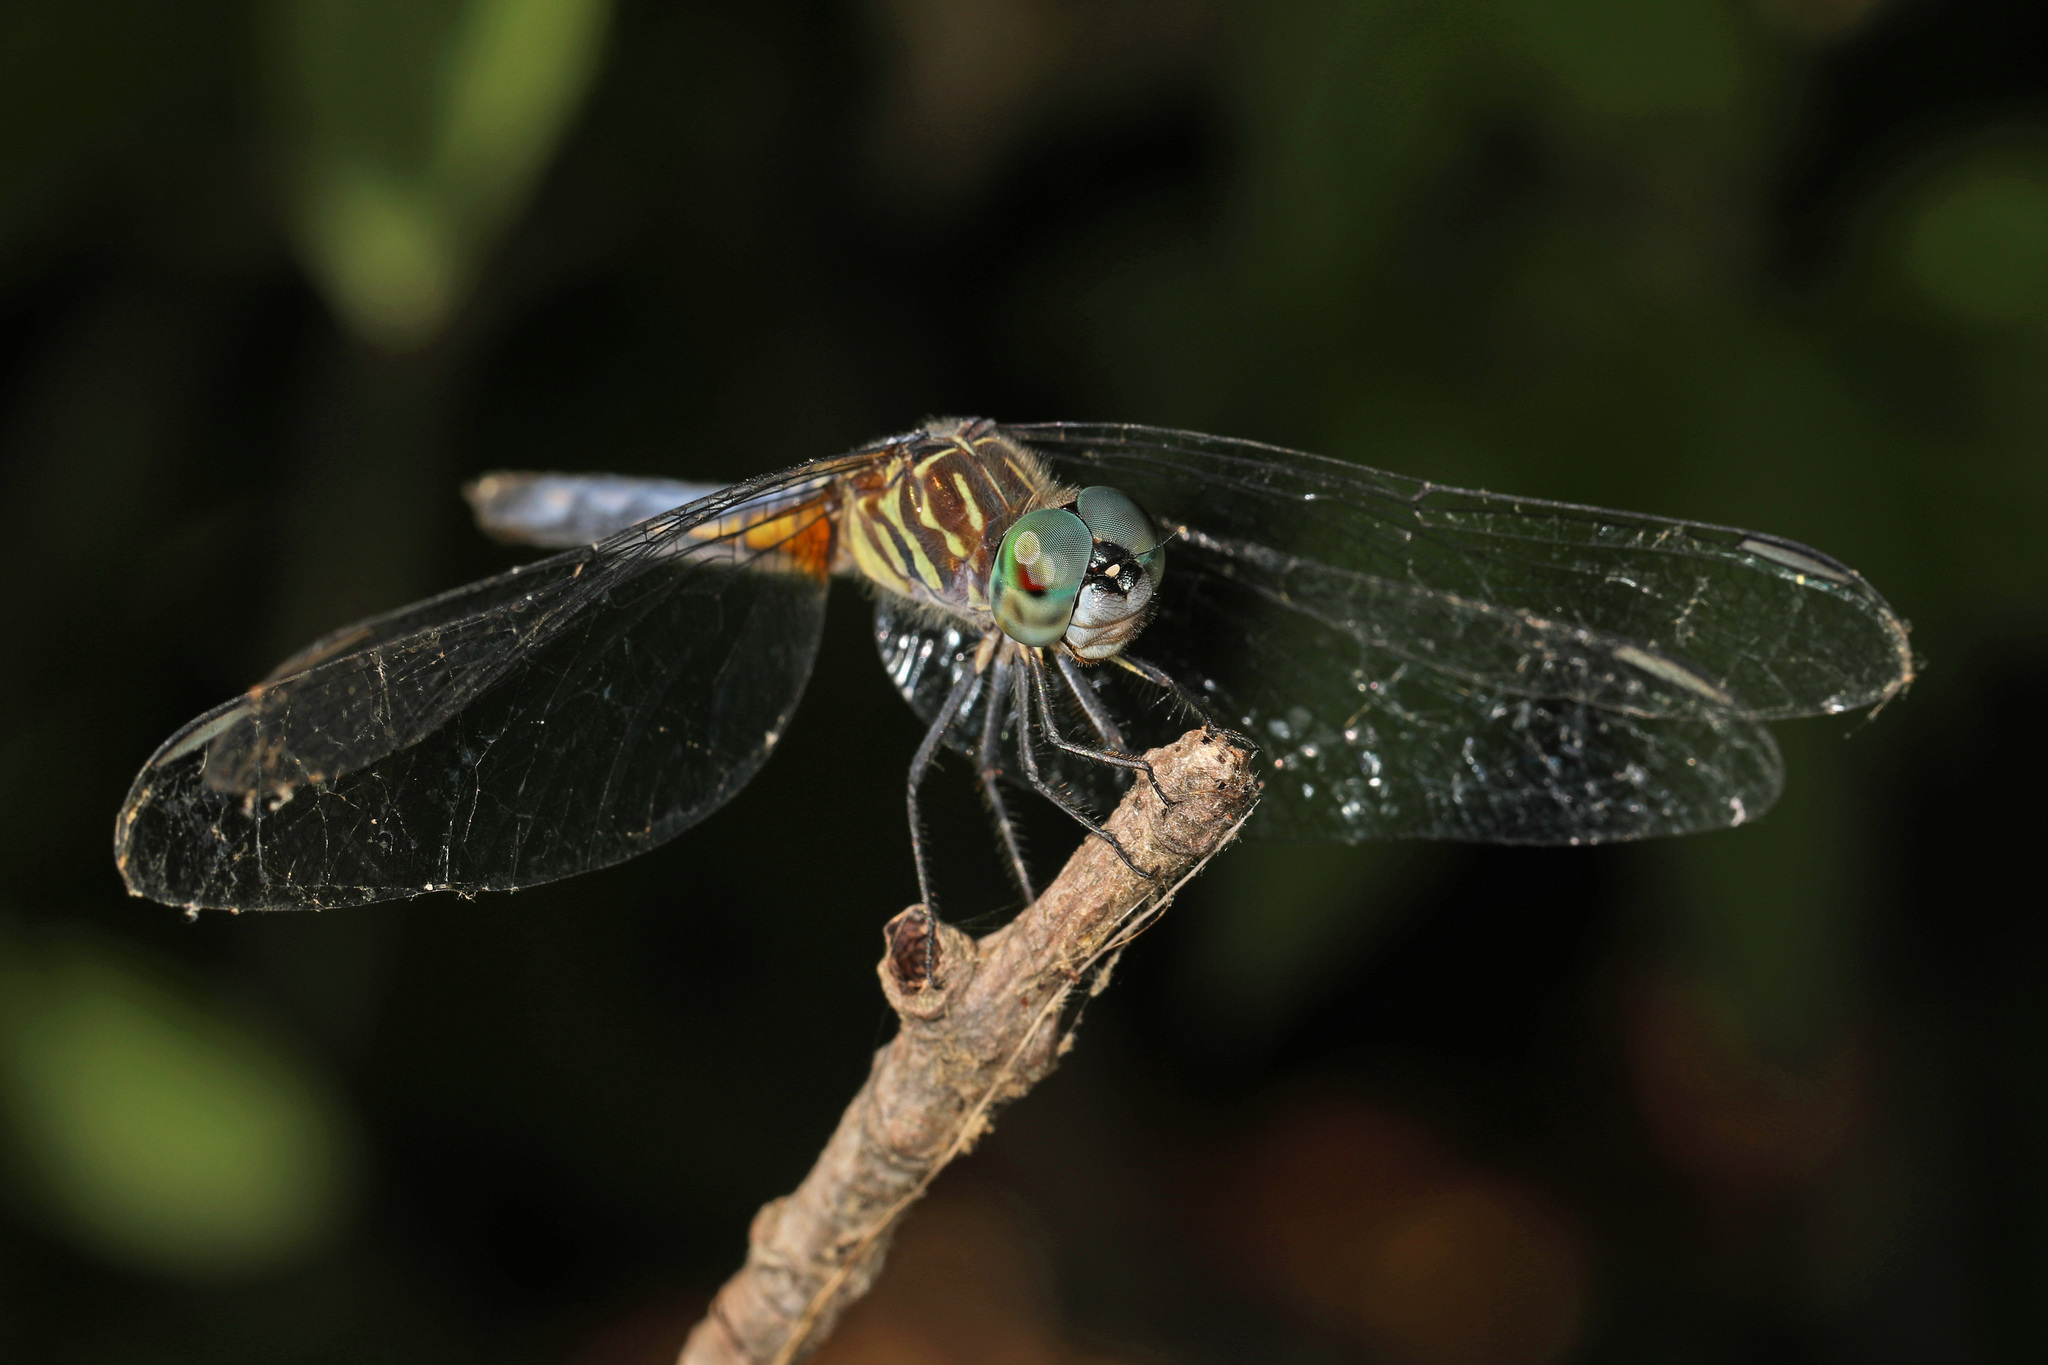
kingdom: Animalia
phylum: Arthropoda
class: Insecta
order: Odonata
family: Libellulidae
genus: Pachydiplax
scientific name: Pachydiplax longipennis
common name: Blue dasher
